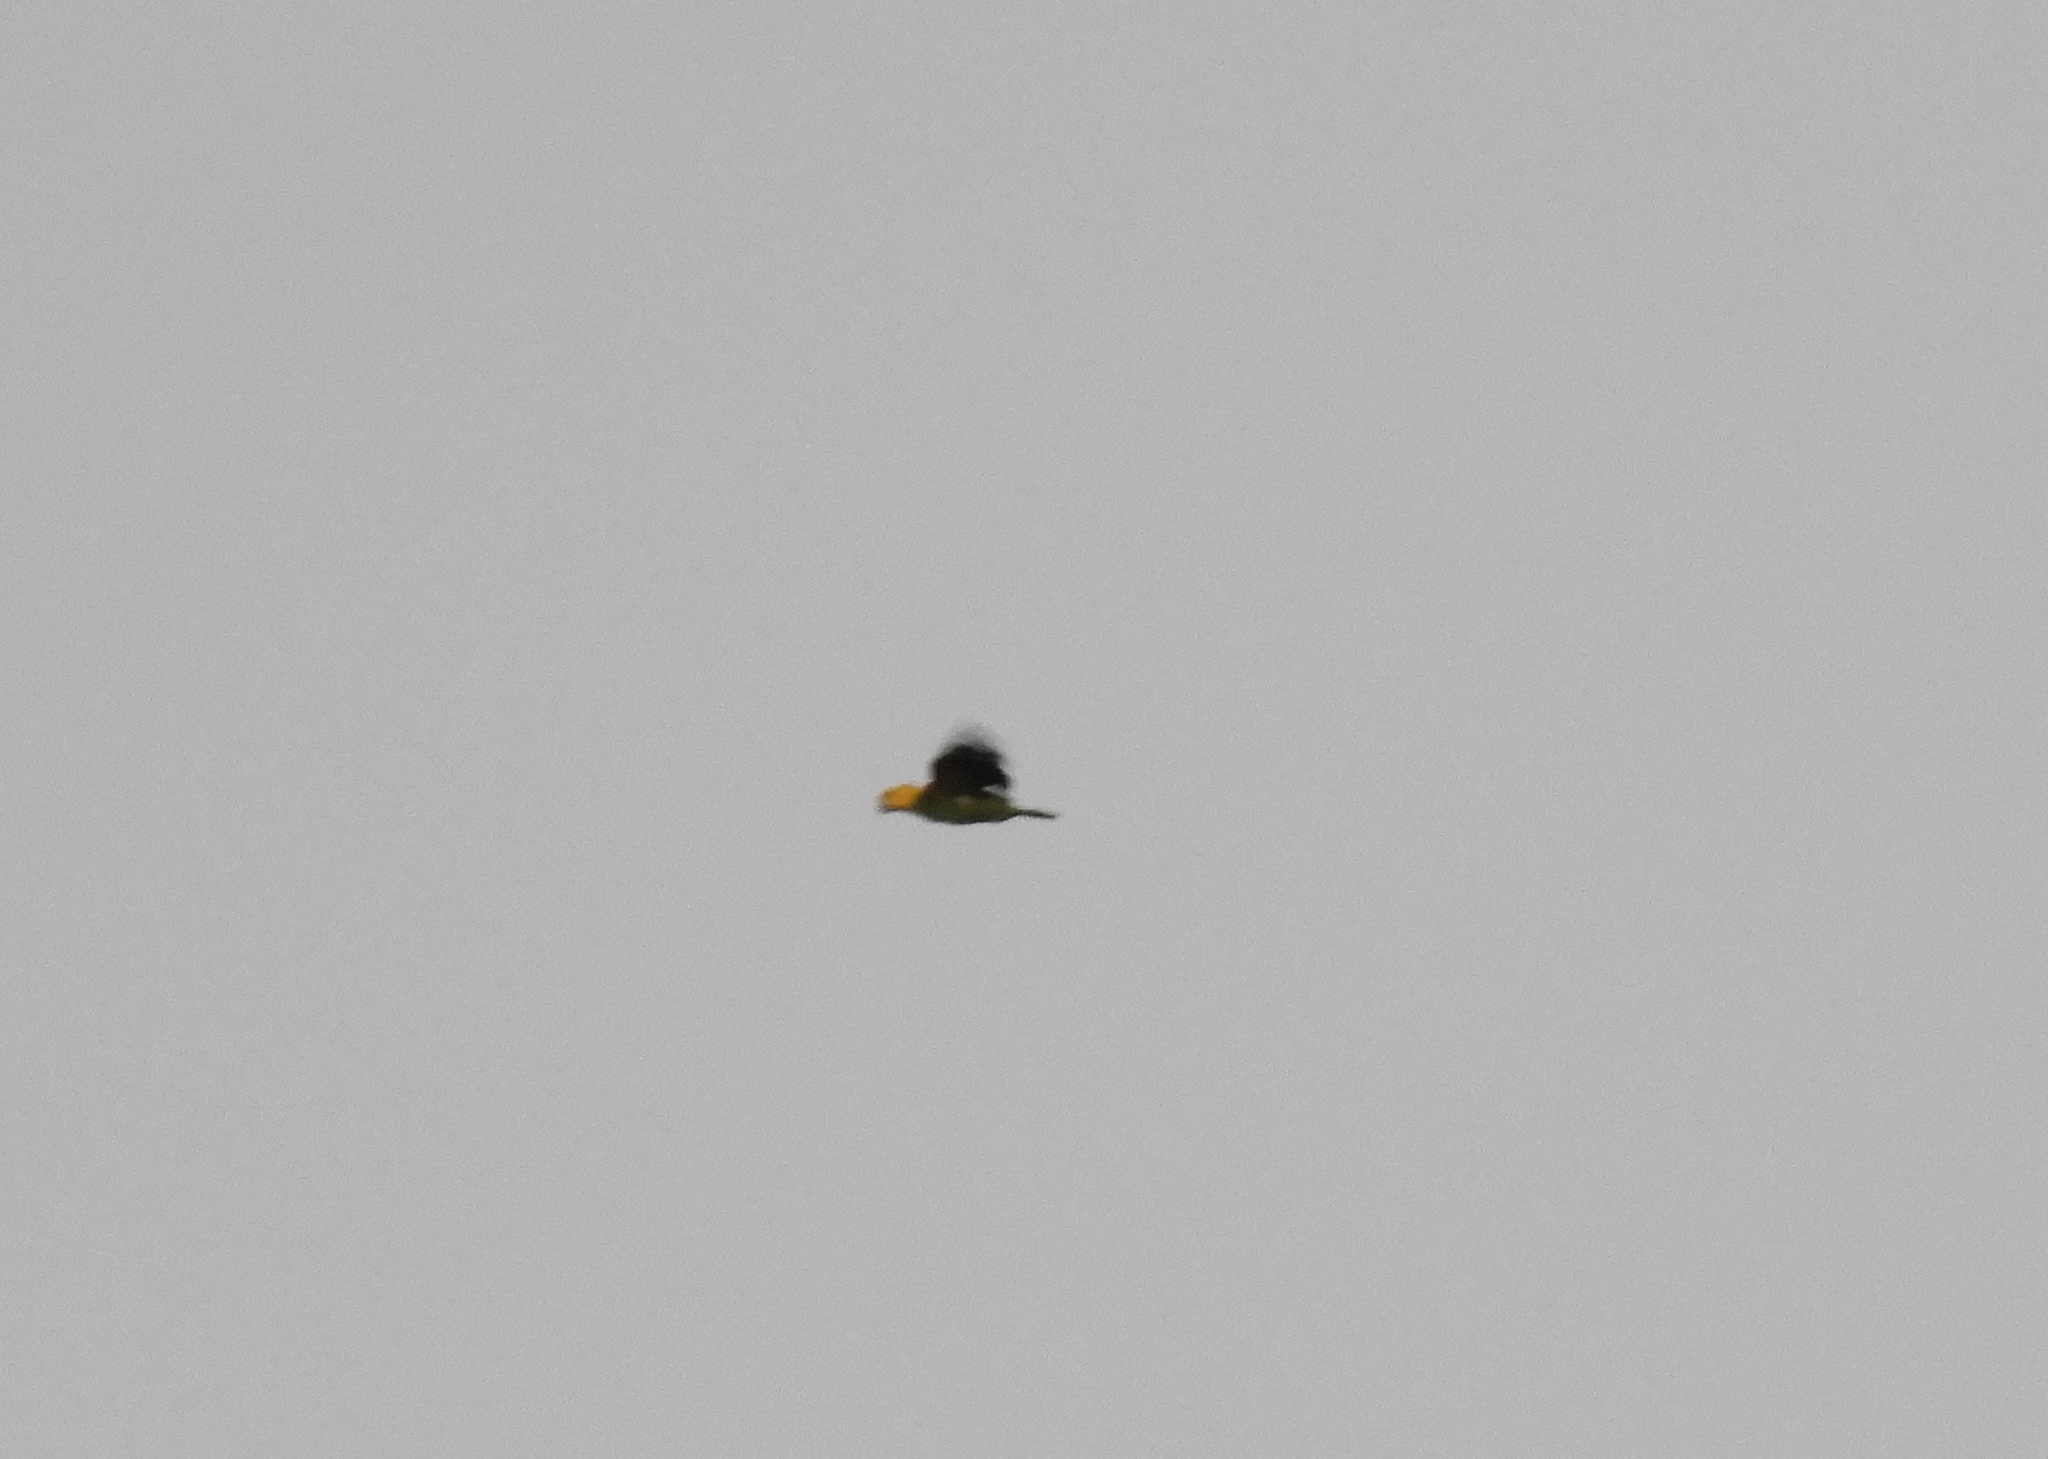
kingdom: Animalia
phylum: Chordata
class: Aves
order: Psittaciformes
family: Psittacidae
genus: Amazona
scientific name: Amazona oratrix
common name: Yellow-headed amazon
